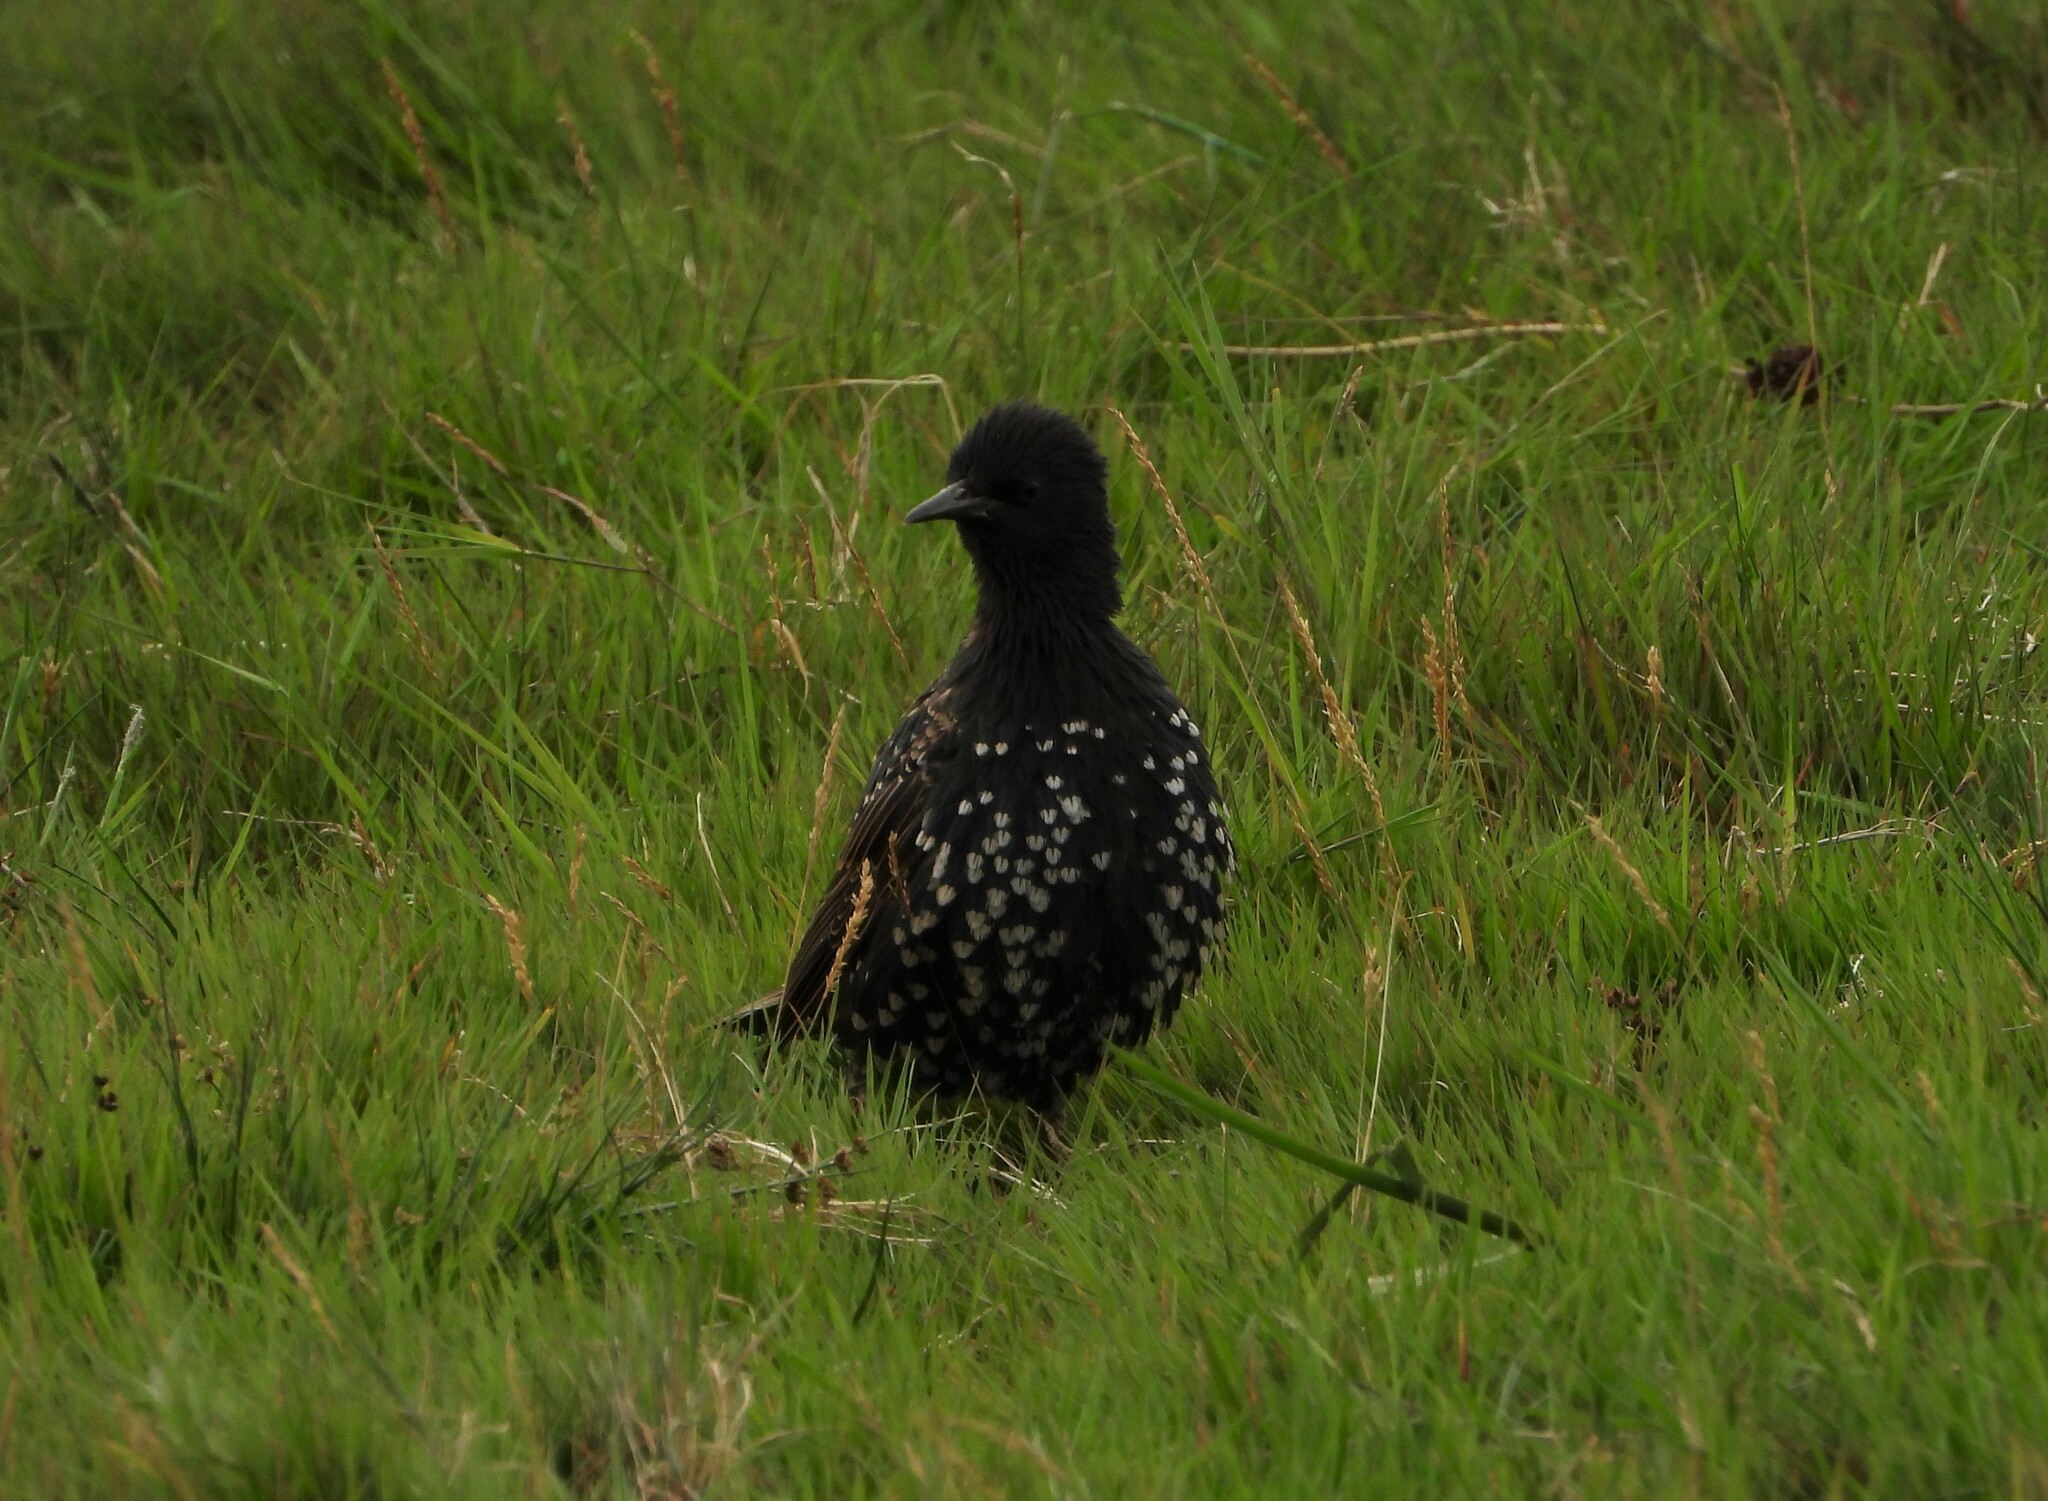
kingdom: Animalia
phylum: Chordata
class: Aves
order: Passeriformes
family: Sturnidae
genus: Sturnus
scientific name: Sturnus vulgaris
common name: Common starling
